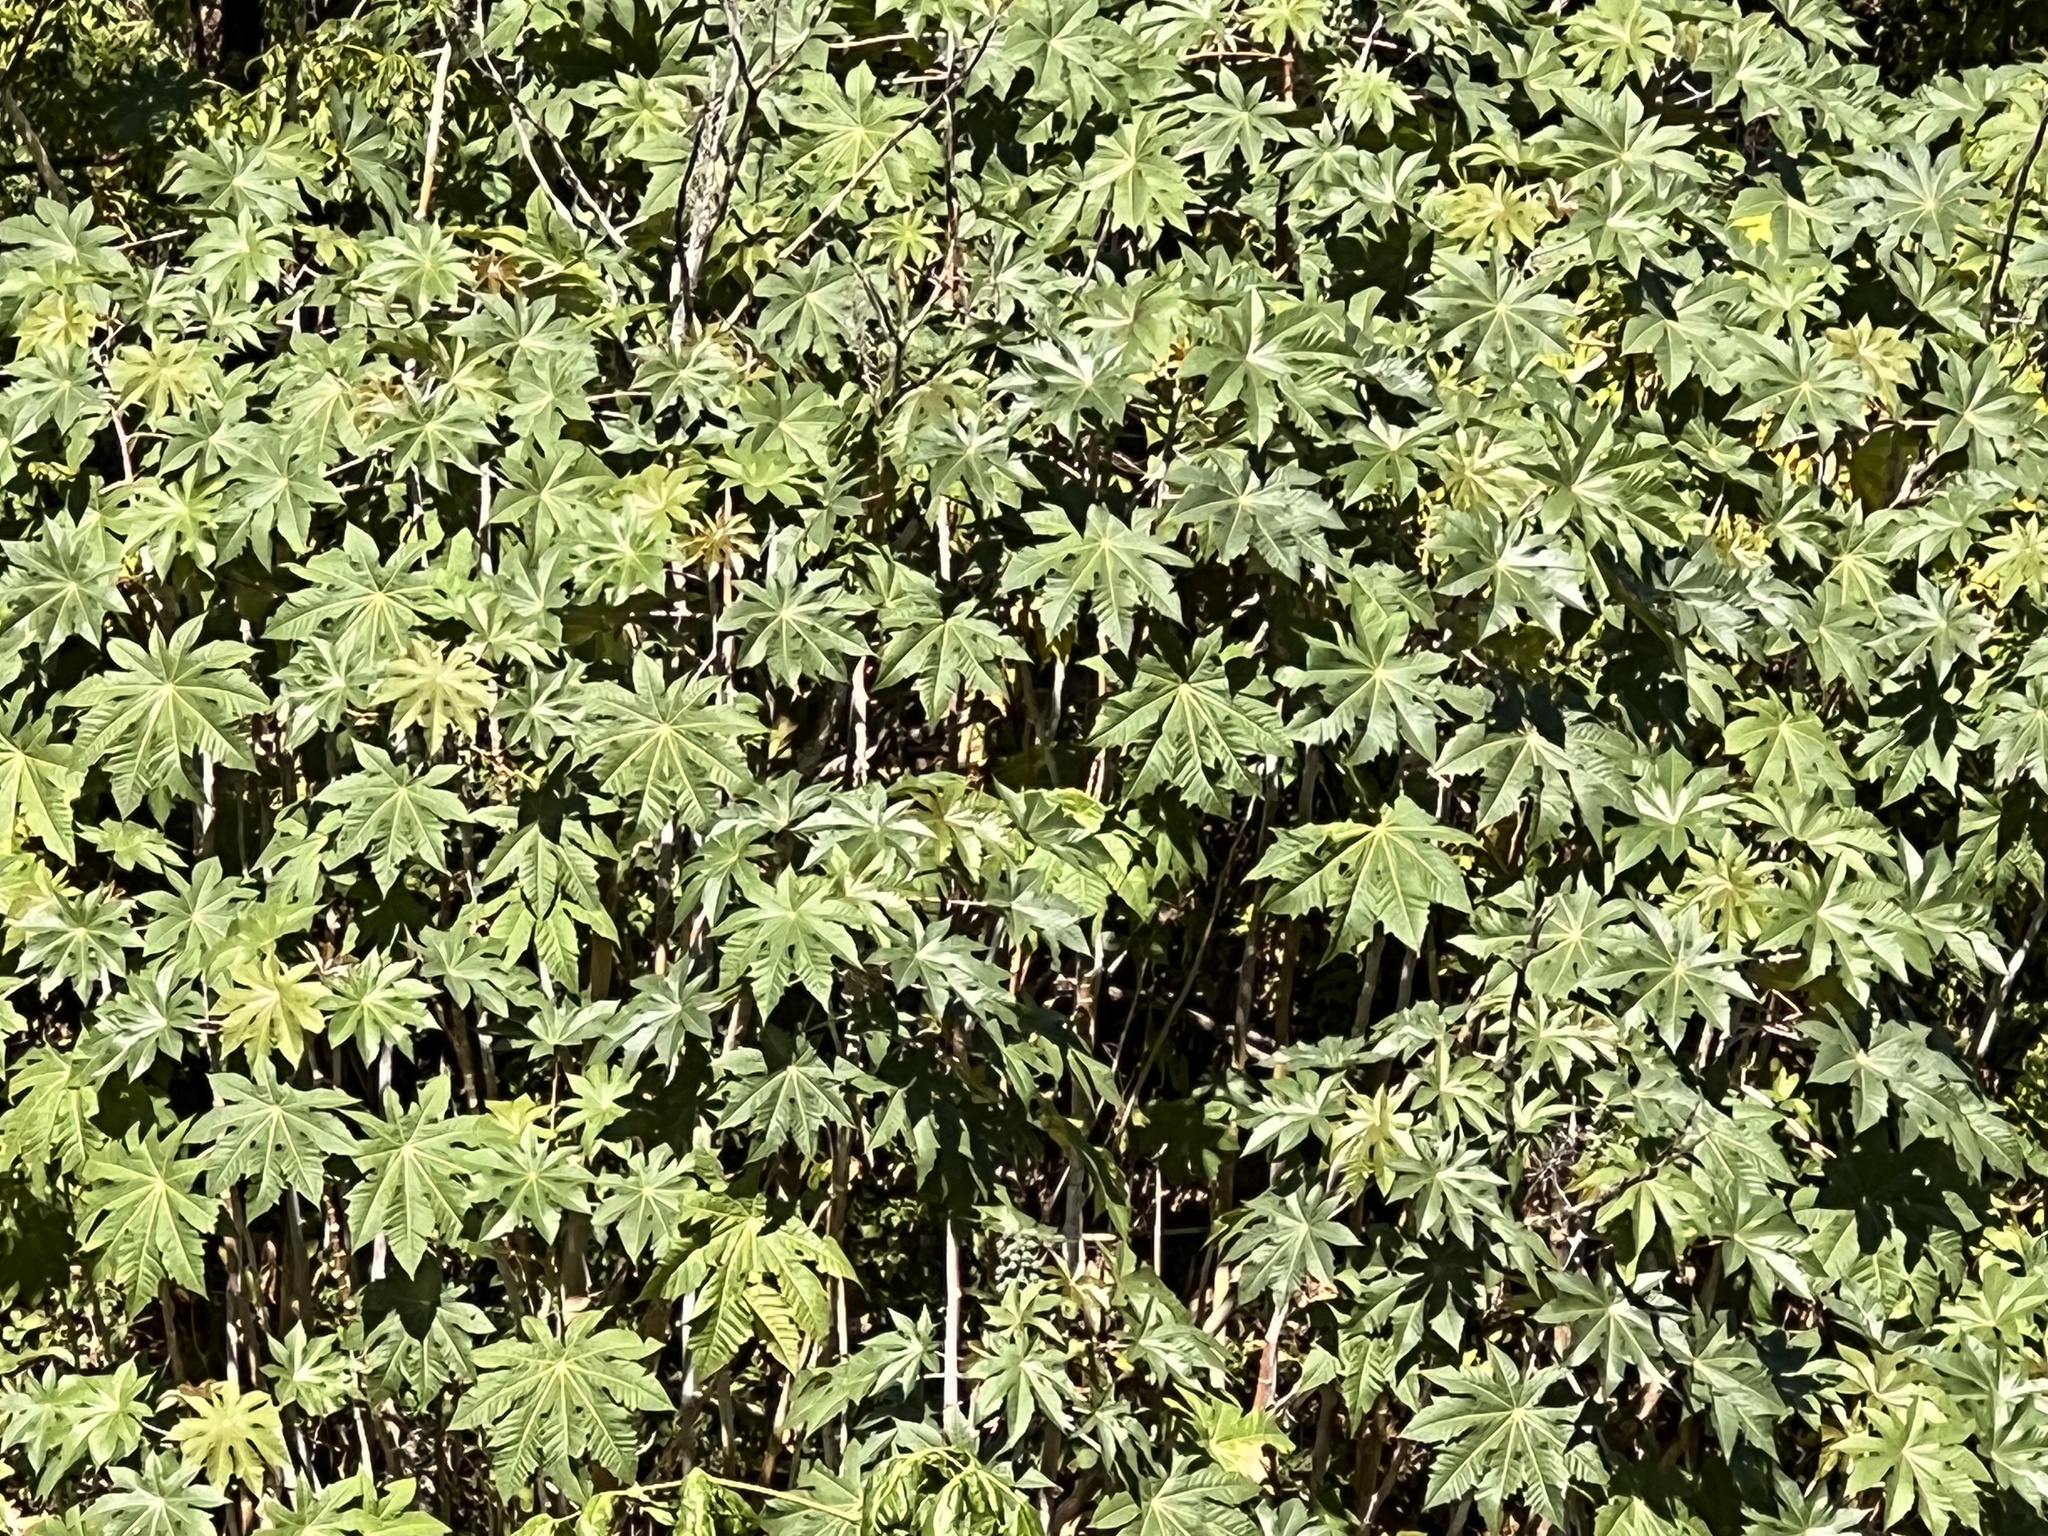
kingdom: Plantae
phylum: Tracheophyta
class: Magnoliopsida
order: Malpighiales
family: Euphorbiaceae
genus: Ricinus
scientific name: Ricinus communis
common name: Castor-oil-plant
